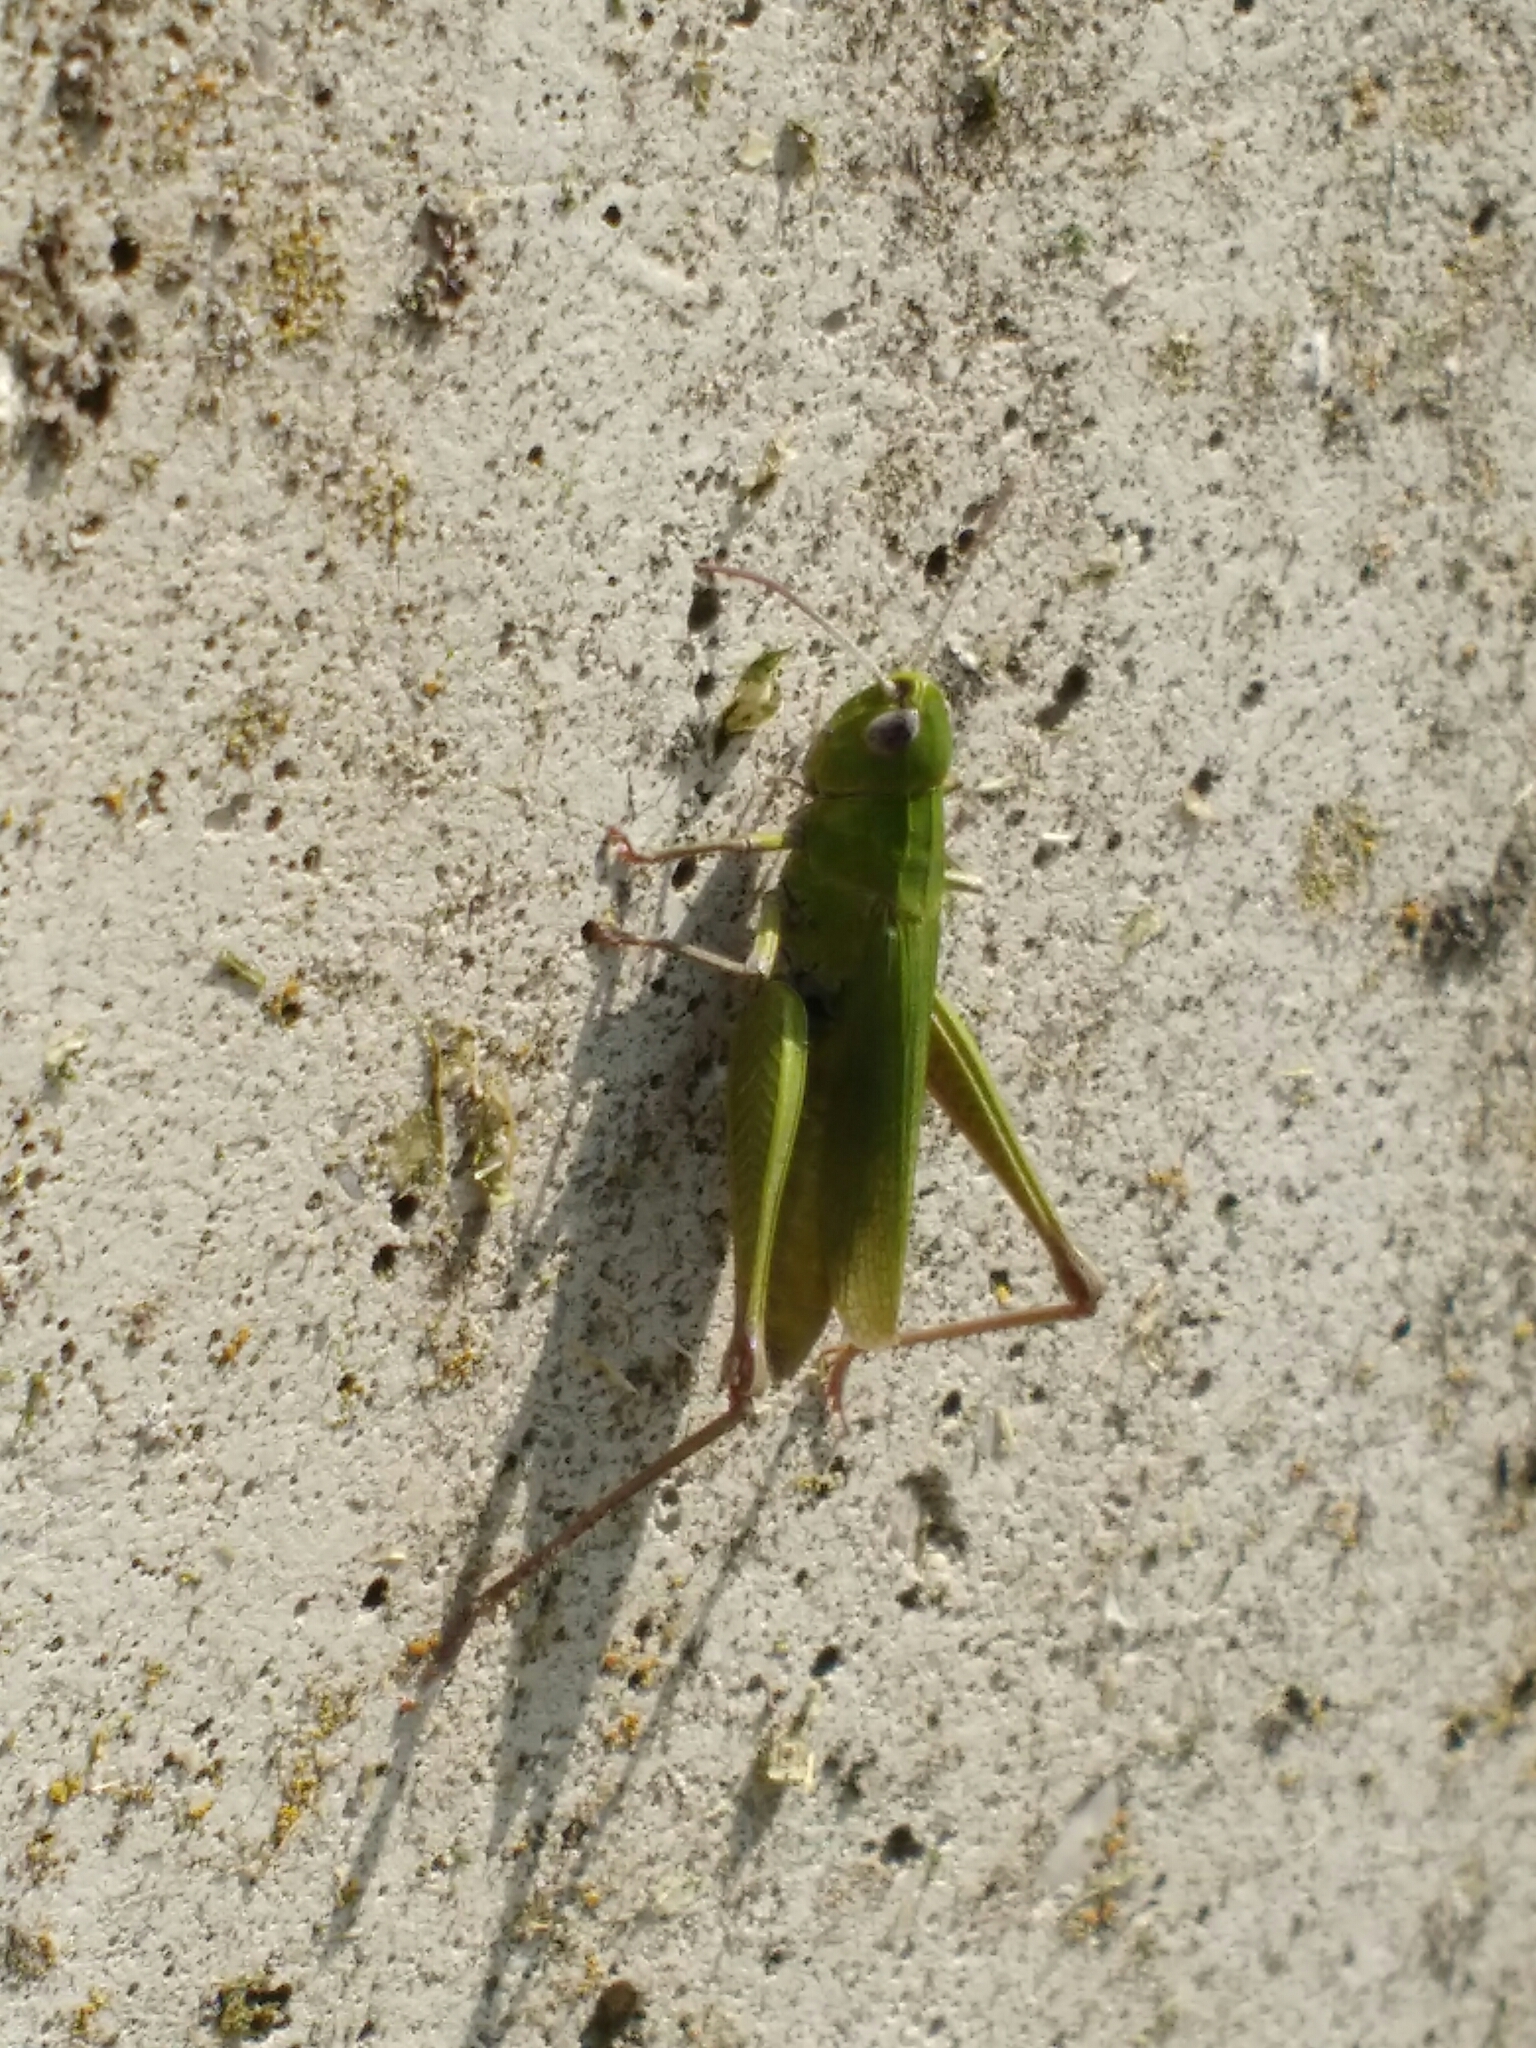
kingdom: Animalia
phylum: Arthropoda
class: Insecta
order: Orthoptera
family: Acrididae
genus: Chorthippus
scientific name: Chorthippus dorsatus
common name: Steppe grasshopper
